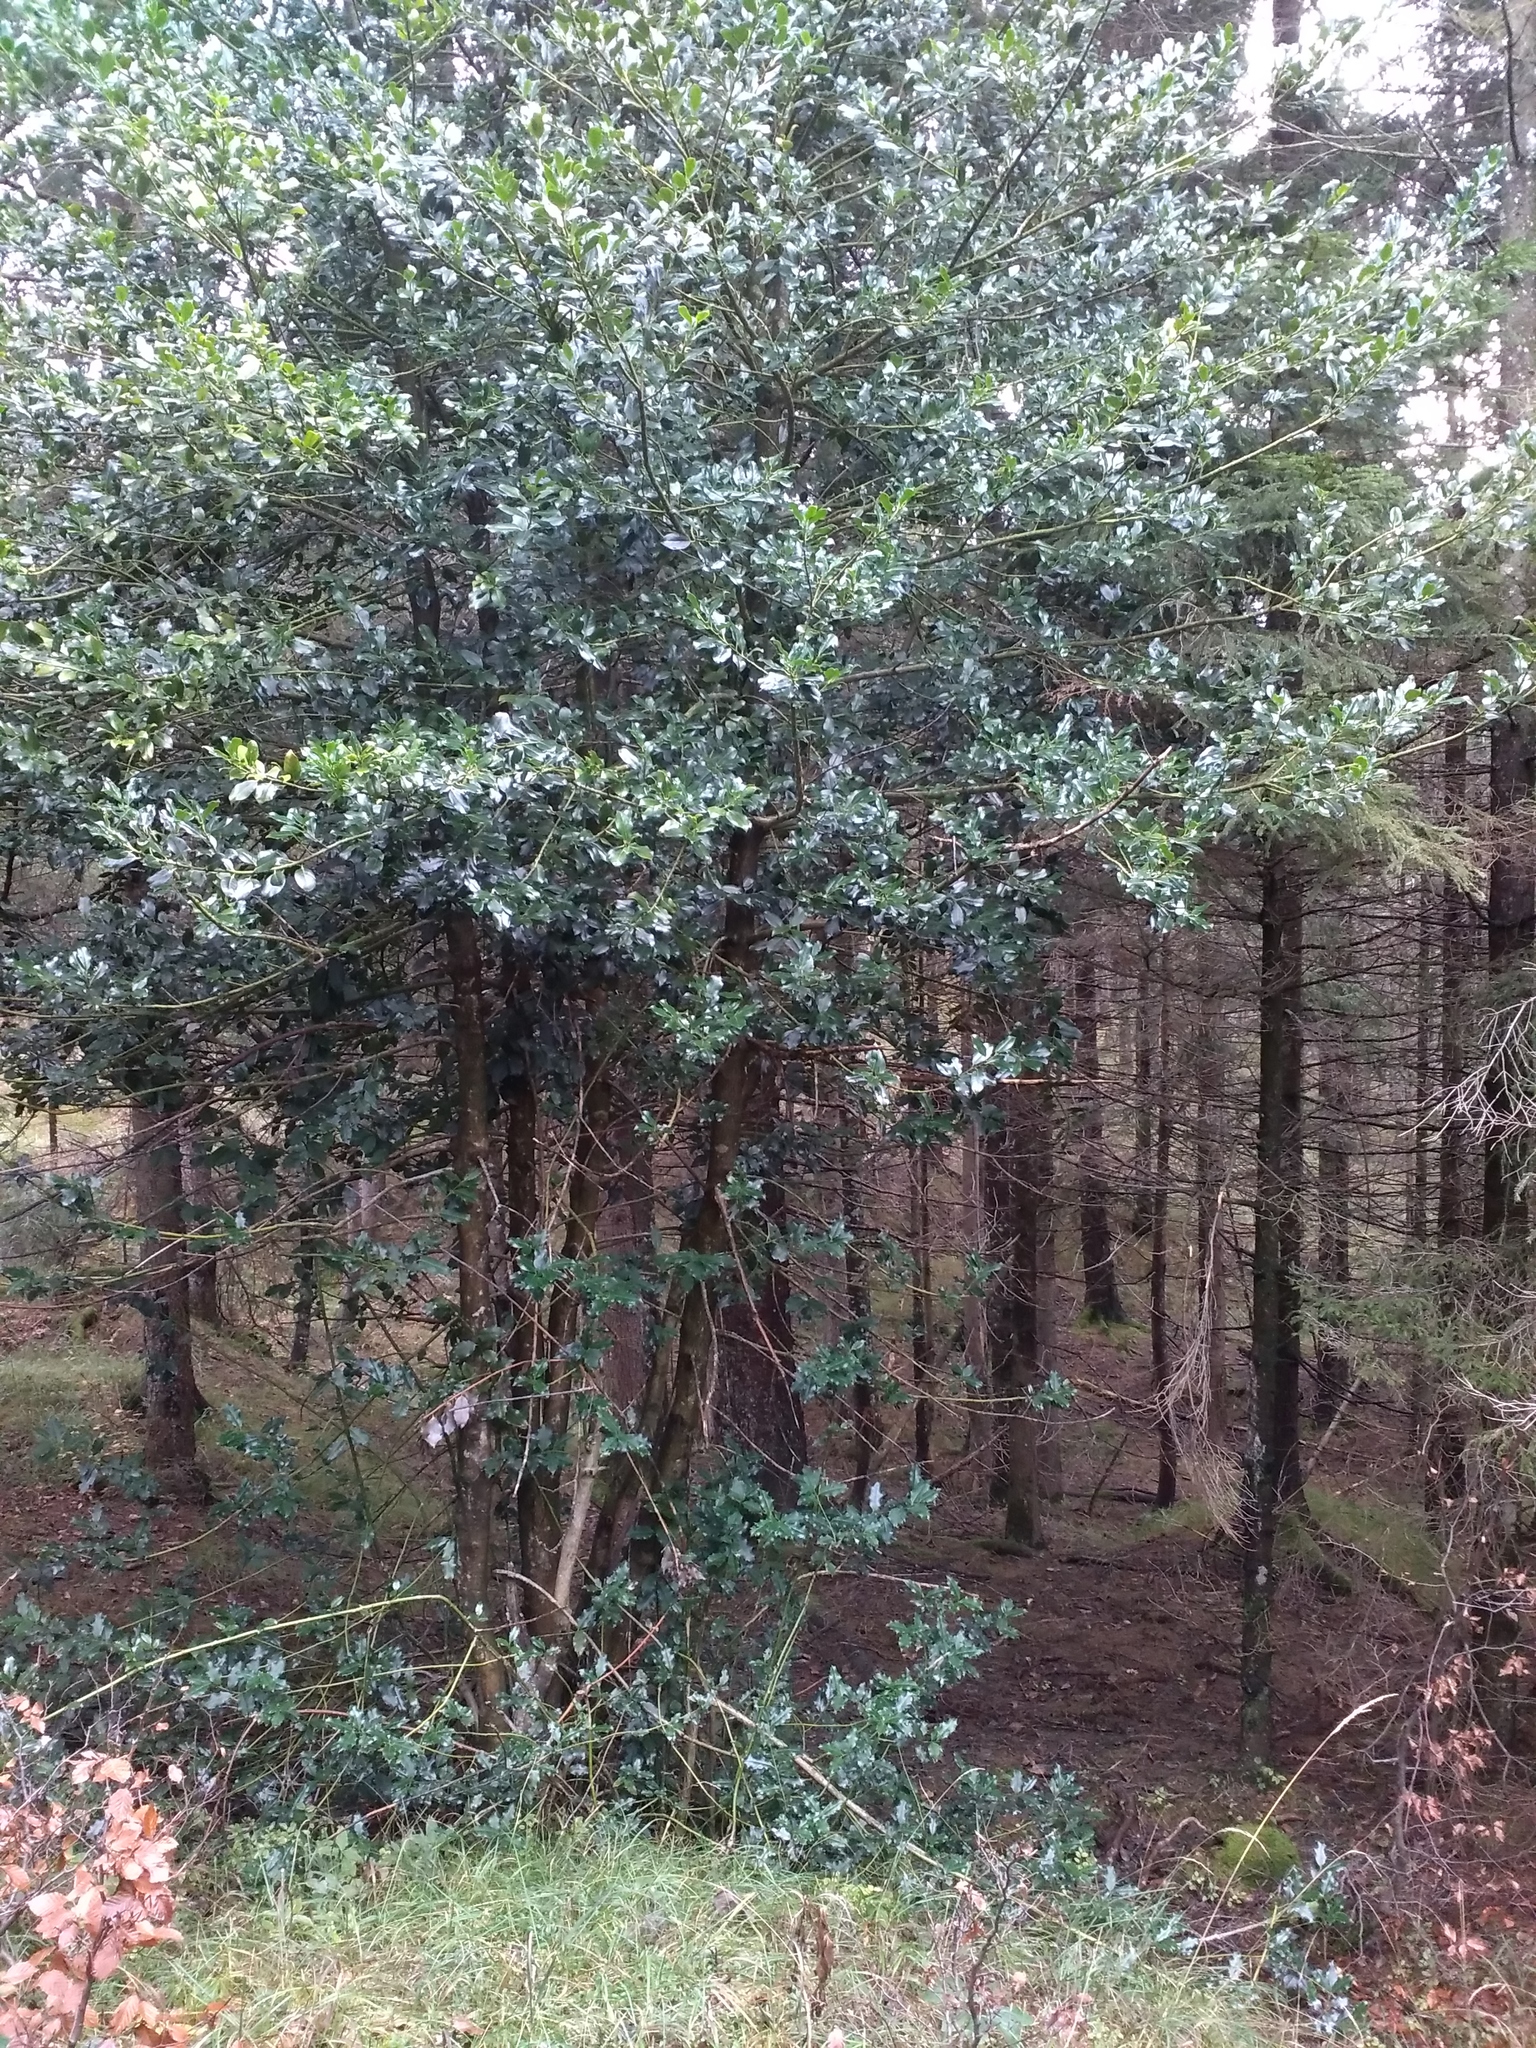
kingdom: Plantae
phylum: Tracheophyta
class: Magnoliopsida
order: Aquifoliales
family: Aquifoliaceae
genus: Ilex
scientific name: Ilex aquifolium
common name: English holly
